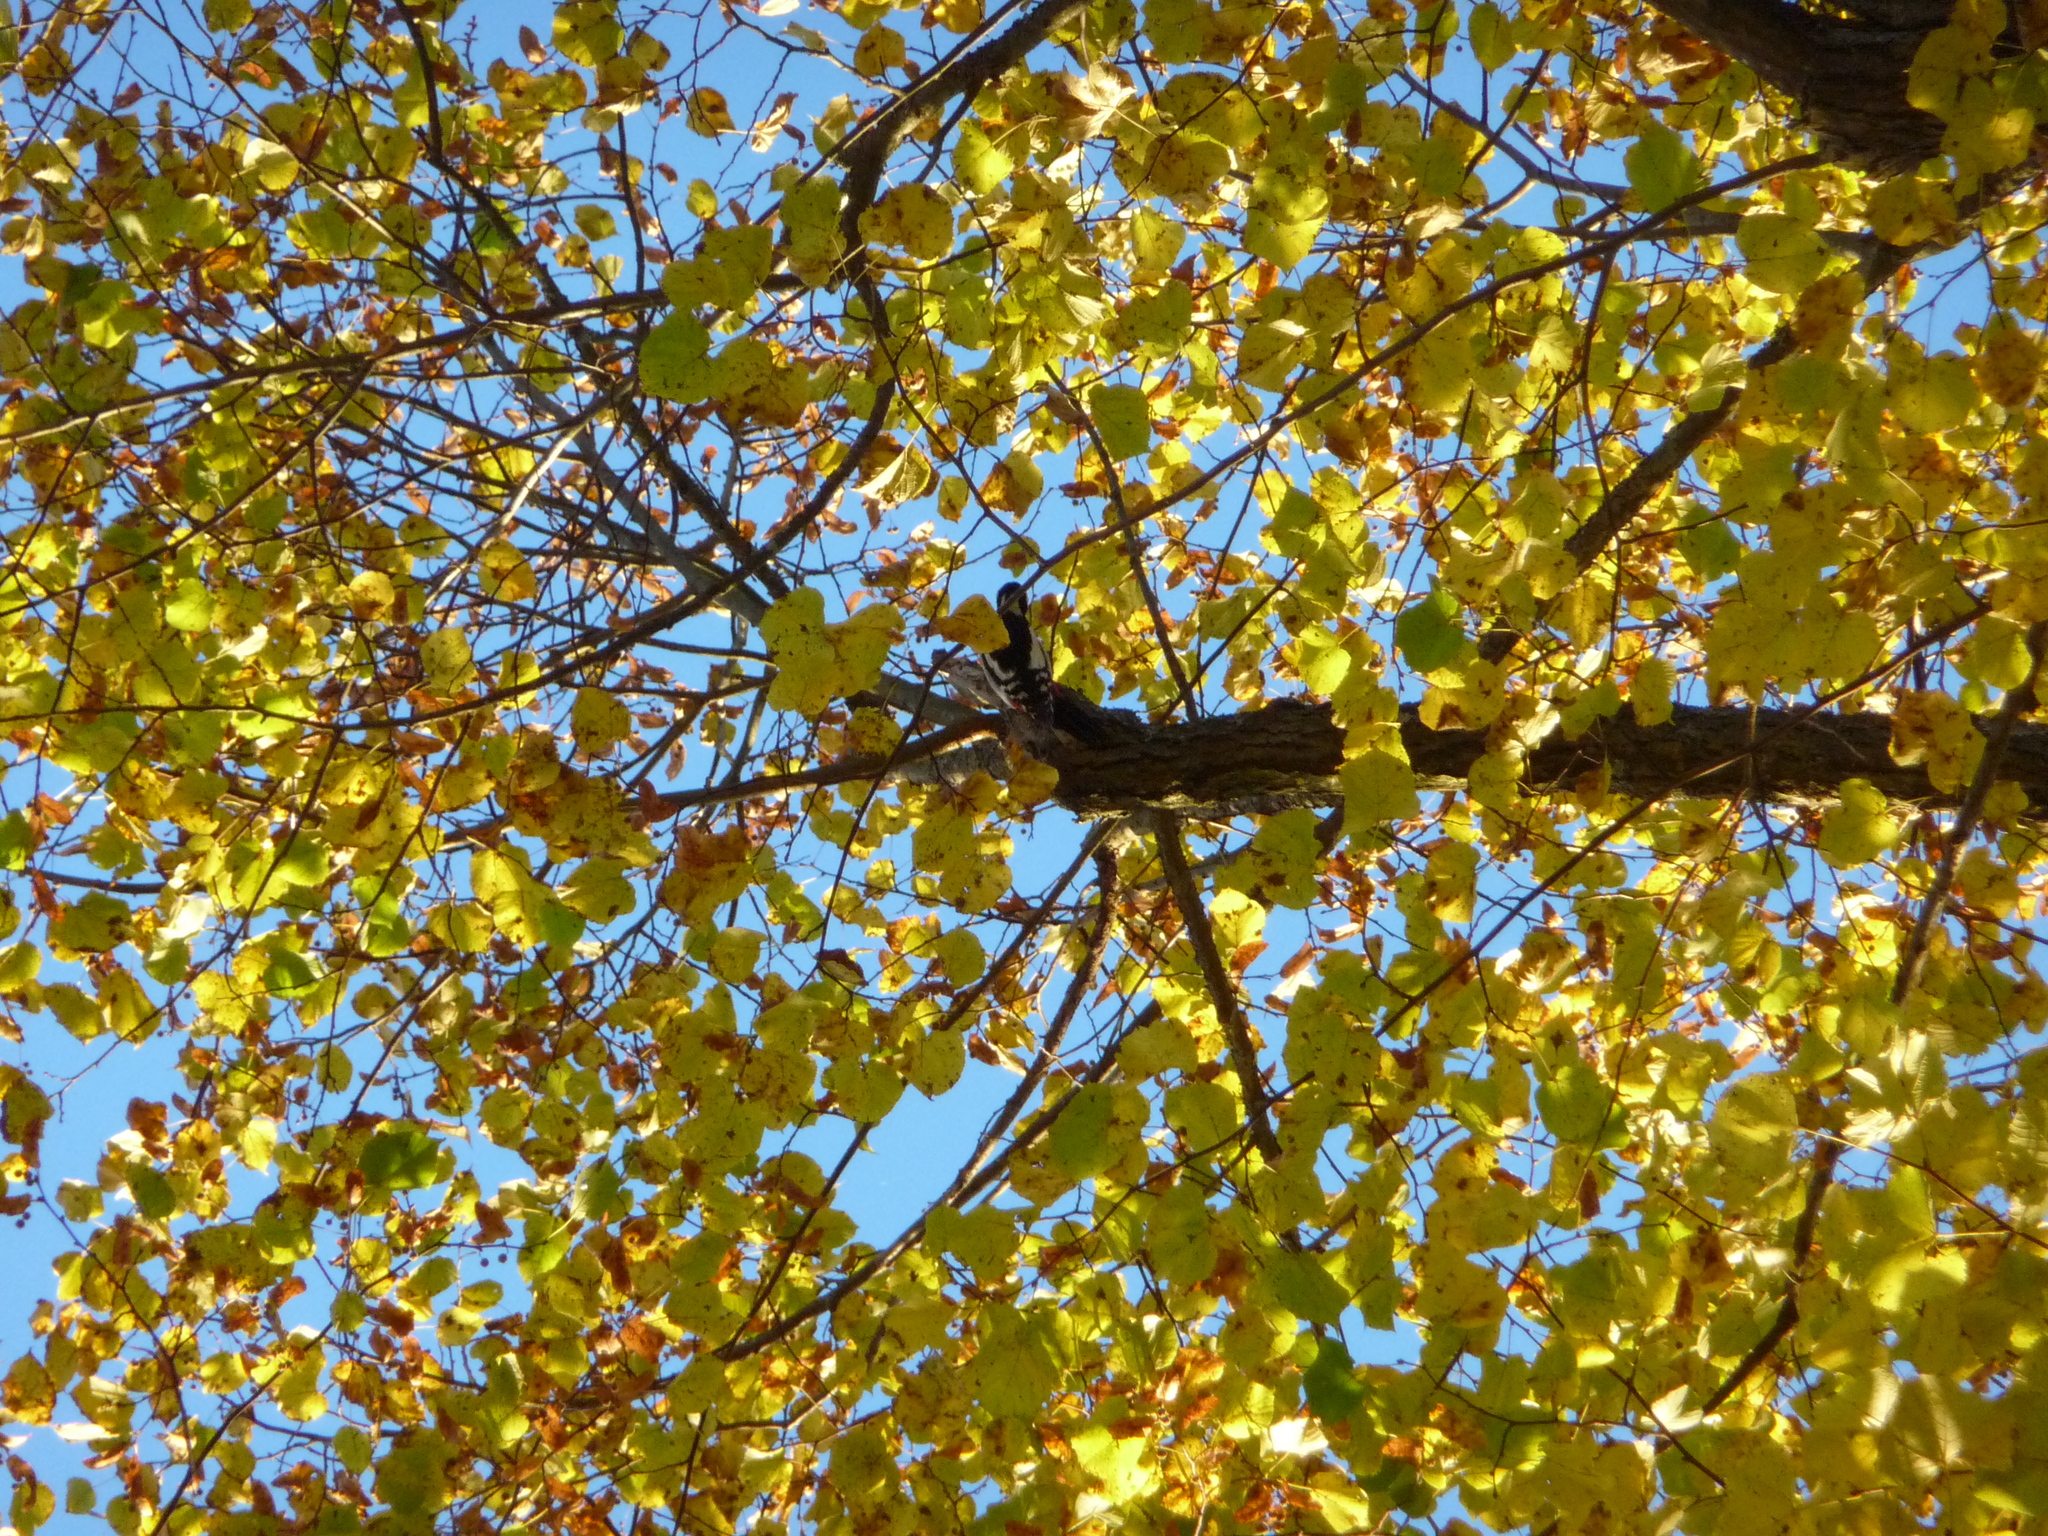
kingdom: Animalia
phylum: Chordata
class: Aves
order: Piciformes
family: Picidae
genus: Dendrocopos
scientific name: Dendrocopos major
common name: Great spotted woodpecker
